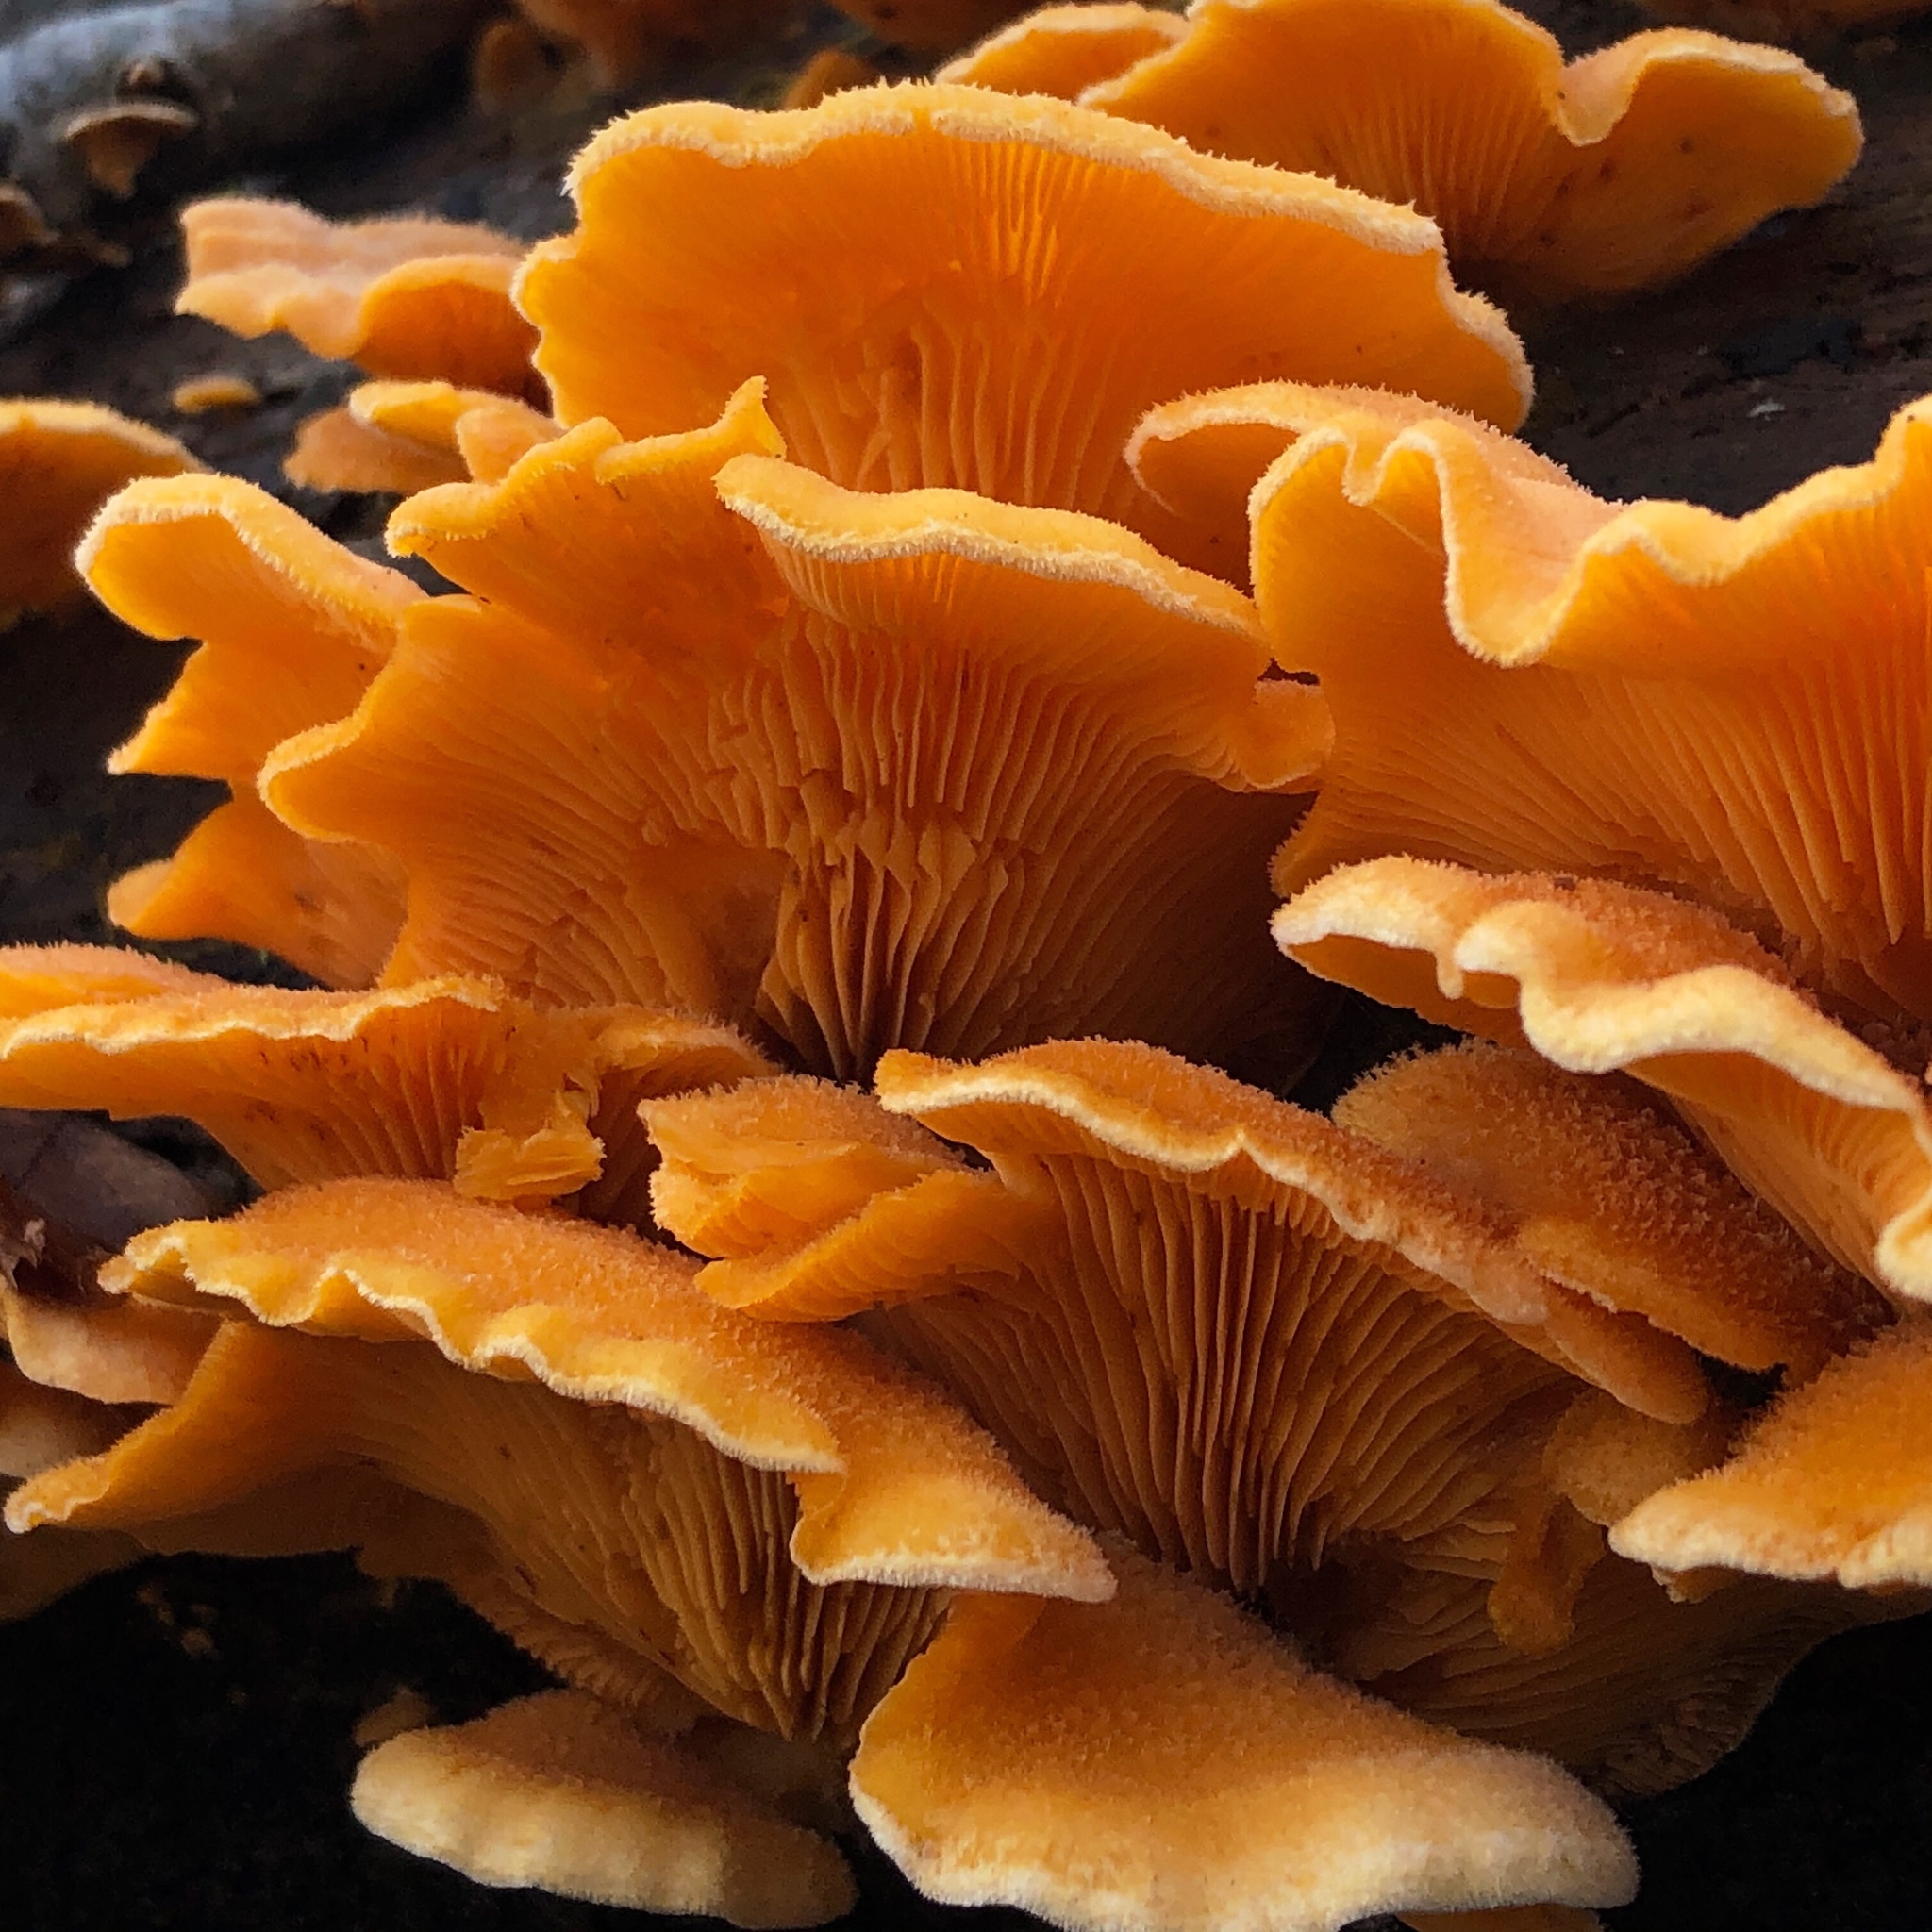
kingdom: Fungi
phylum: Basidiomycota
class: Agaricomycetes
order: Agaricales
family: Phyllotopsidaceae
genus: Phyllotopsis
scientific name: Phyllotopsis nidulans
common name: Orange mock oyster
